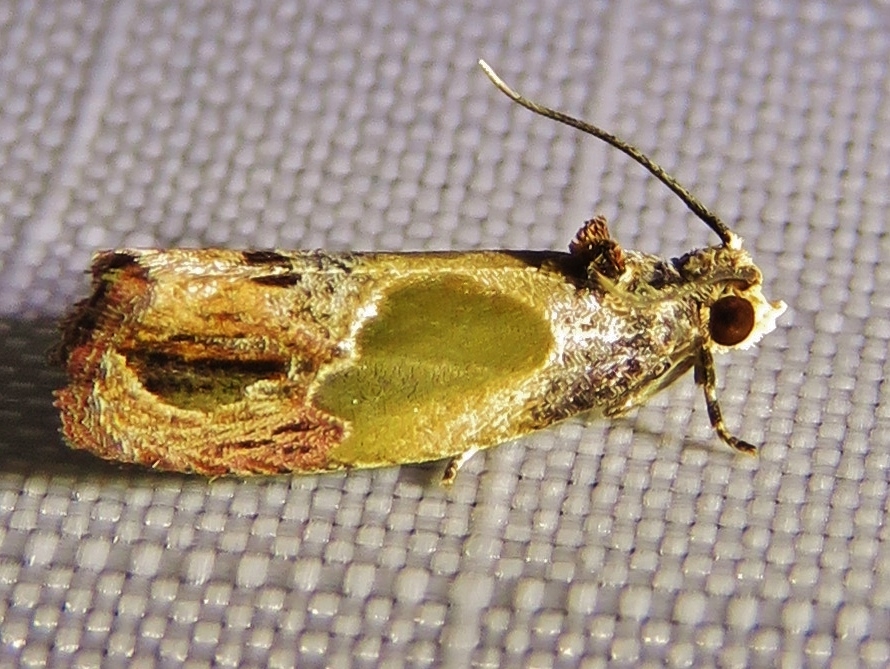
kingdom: Animalia
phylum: Arthropoda
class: Insecta
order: Lepidoptera
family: Tortricidae
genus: Eumarozia
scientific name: Eumarozia malachitana
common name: Sculptured moth
